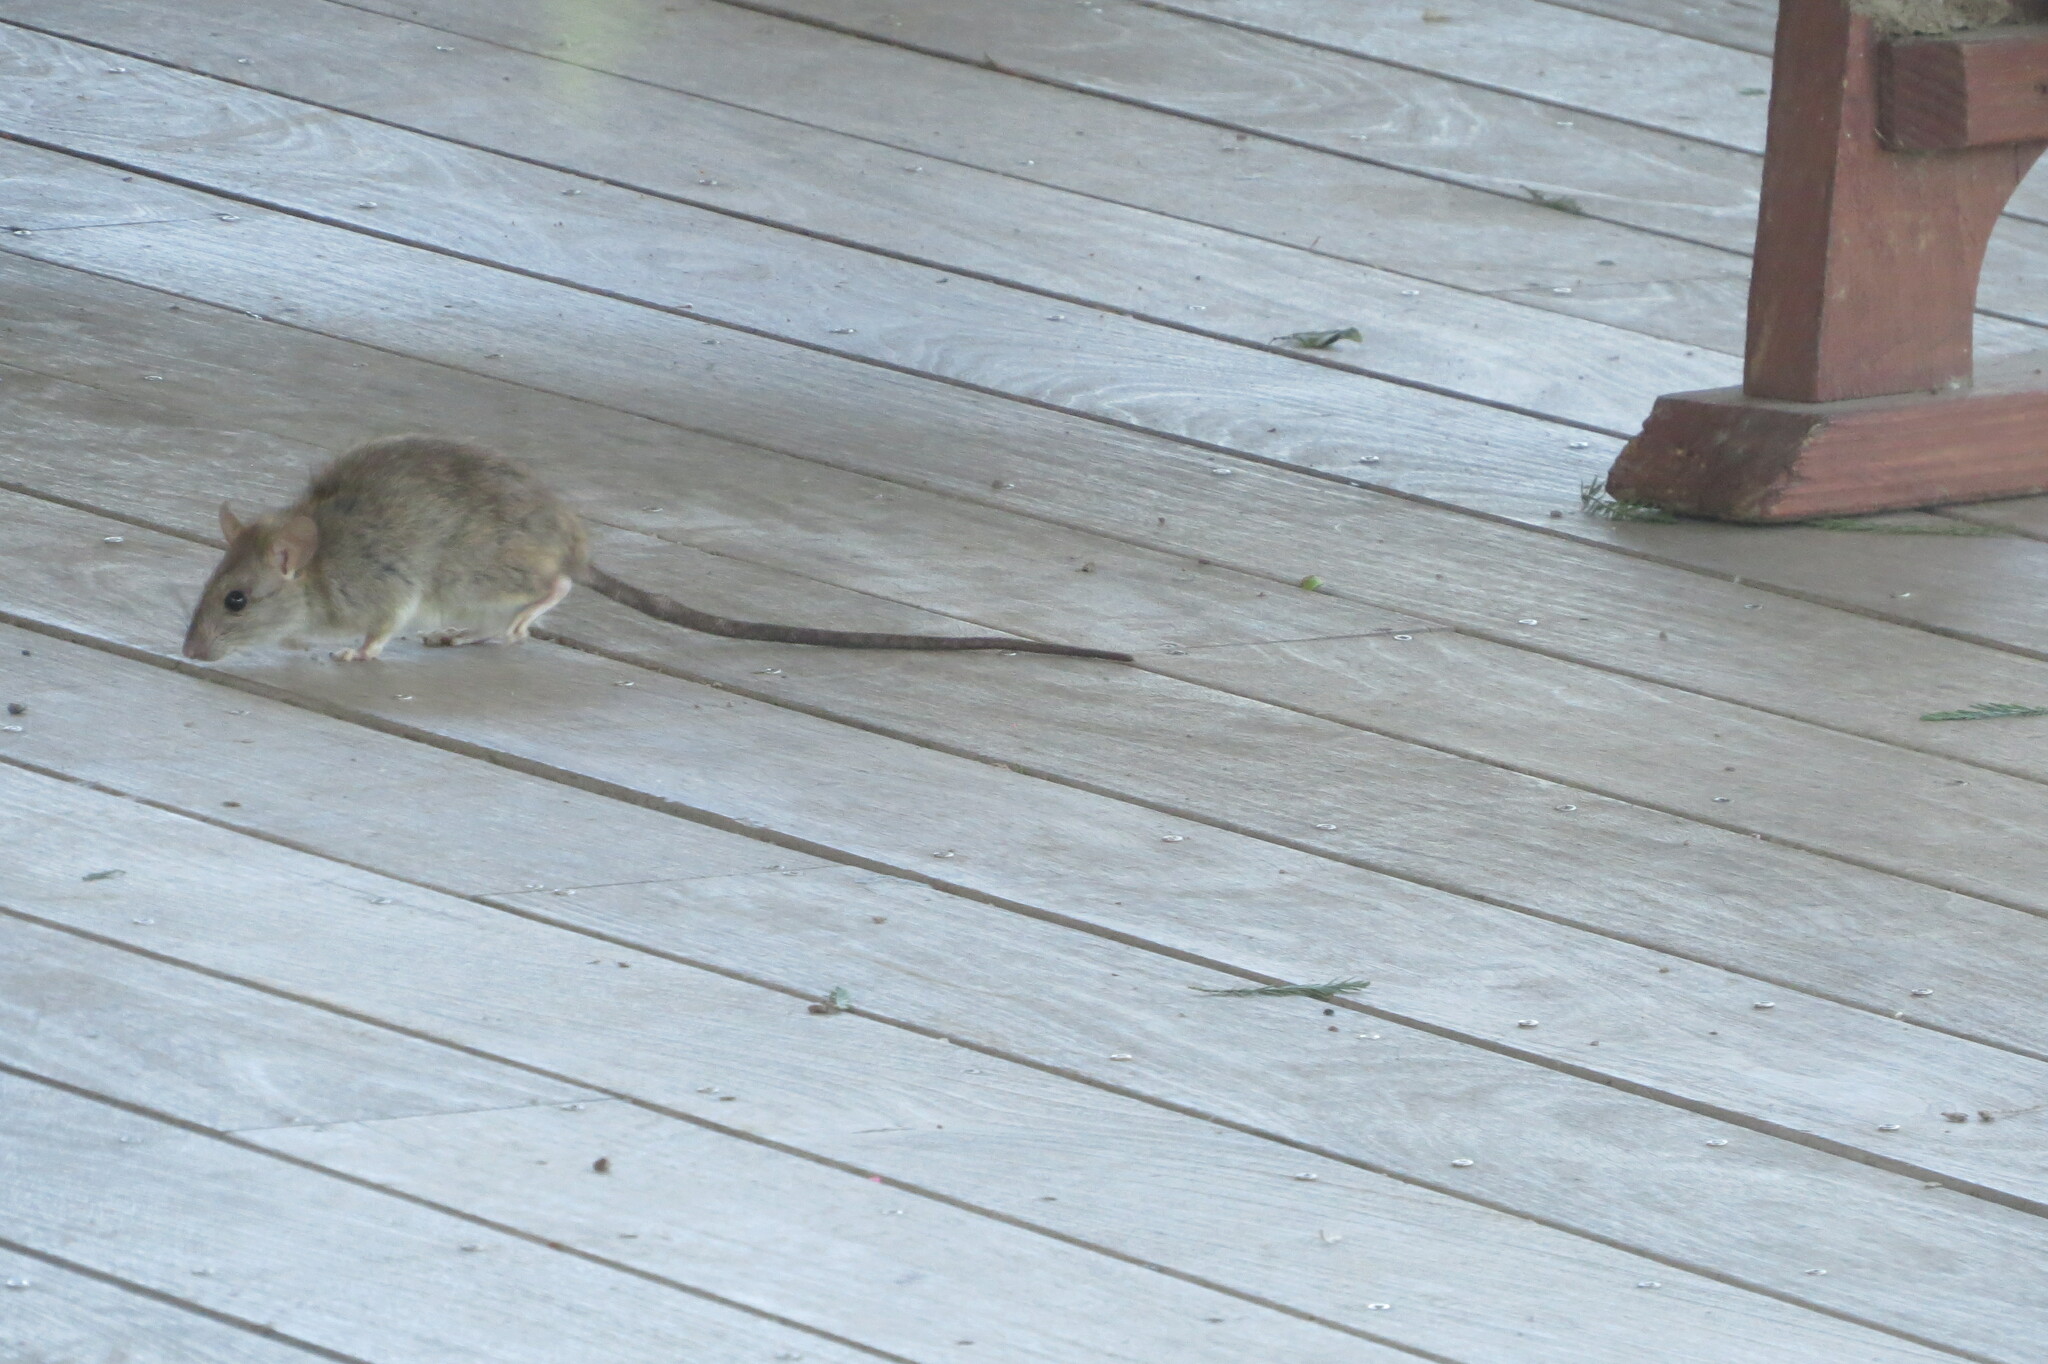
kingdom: Animalia
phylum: Chordata
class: Mammalia
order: Rodentia
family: Muridae
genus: Rattus
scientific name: Rattus rattus
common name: Black rat
